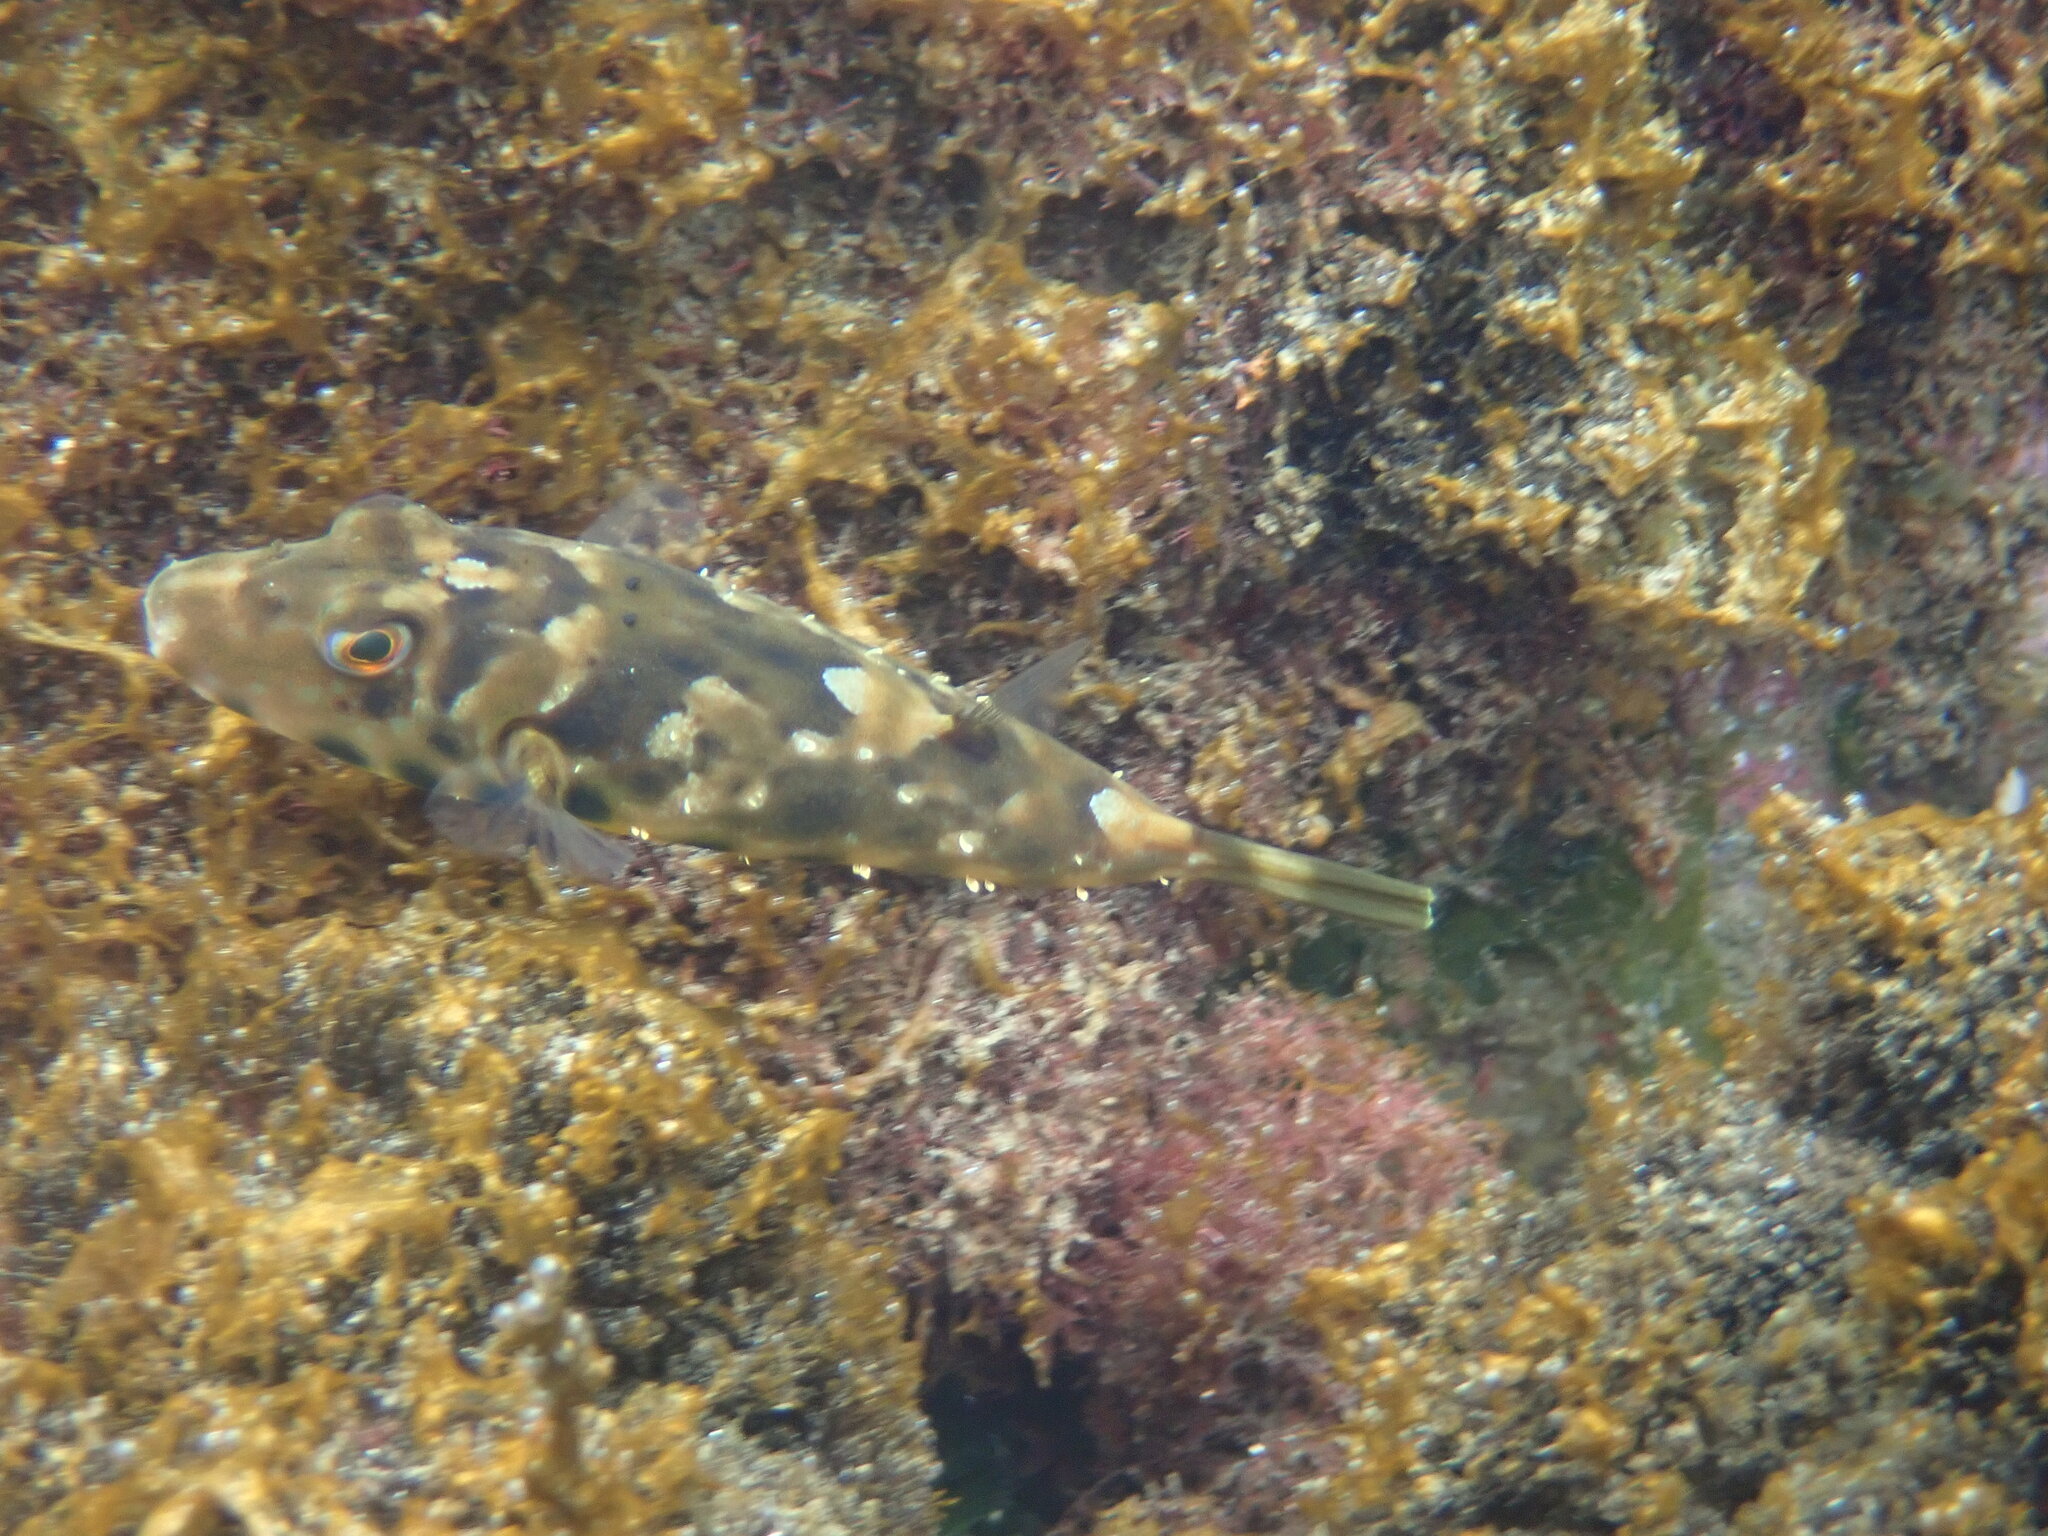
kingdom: Animalia
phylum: Chordata
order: Tetraodontiformes
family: Tetraodontidae
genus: Sphoeroides
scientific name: Sphoeroides marmoratus
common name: Guinean puffer
